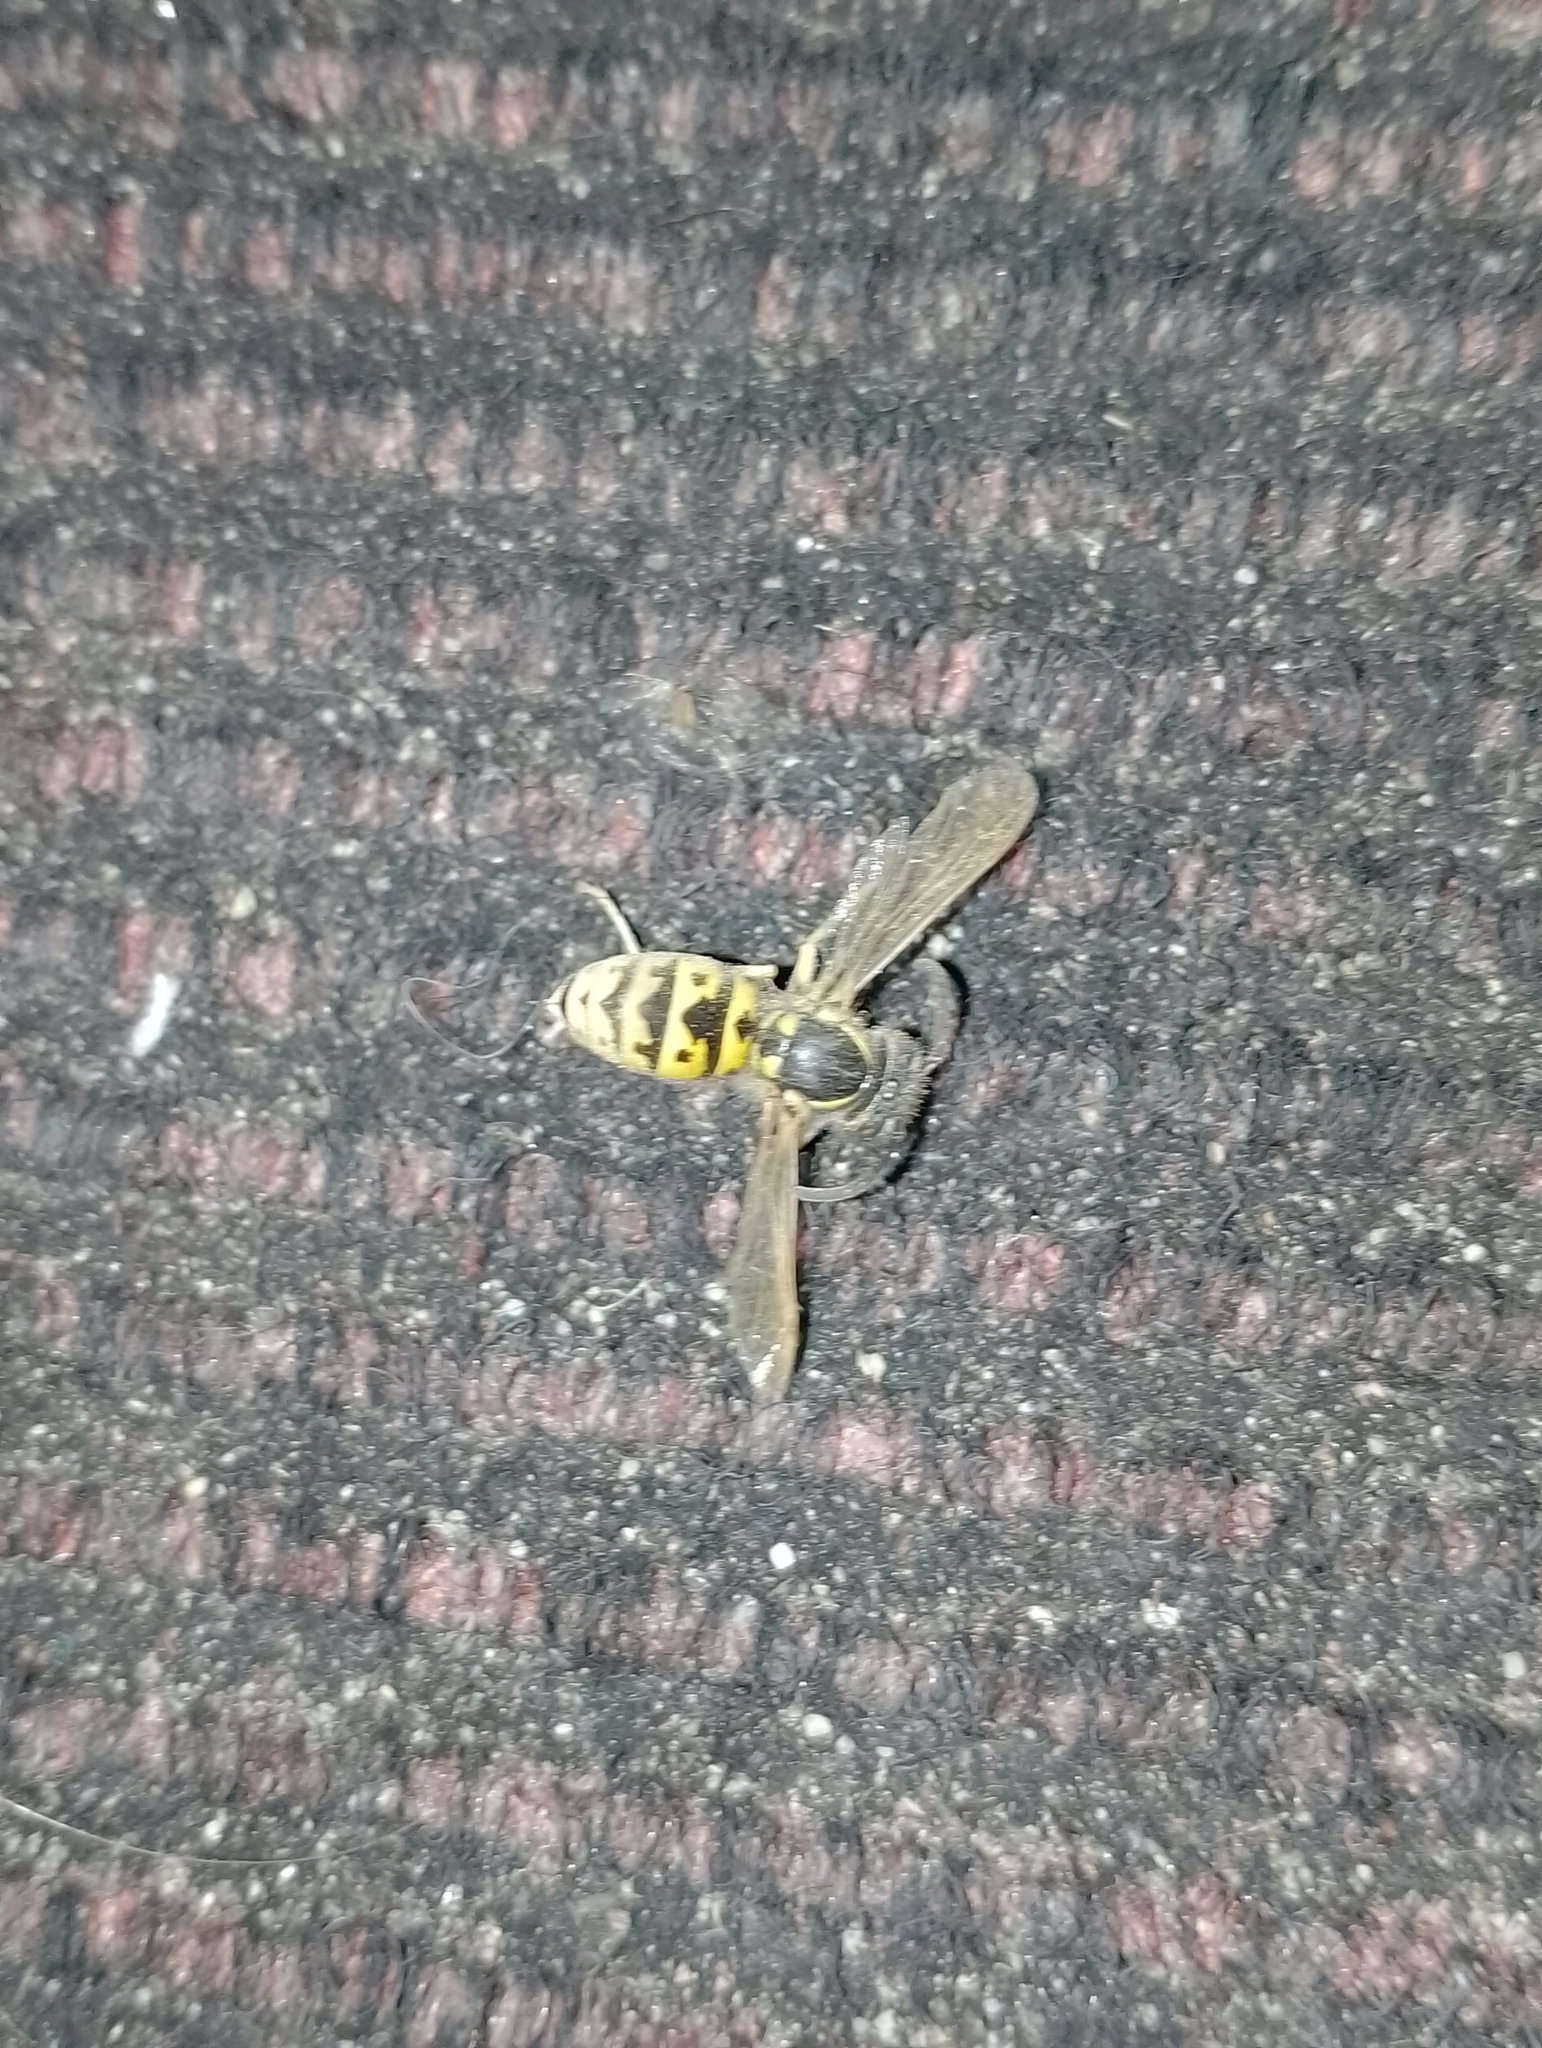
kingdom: Animalia
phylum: Arthropoda
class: Insecta
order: Hymenoptera
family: Vespidae
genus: Vespula
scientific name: Vespula germanica
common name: German wasp
